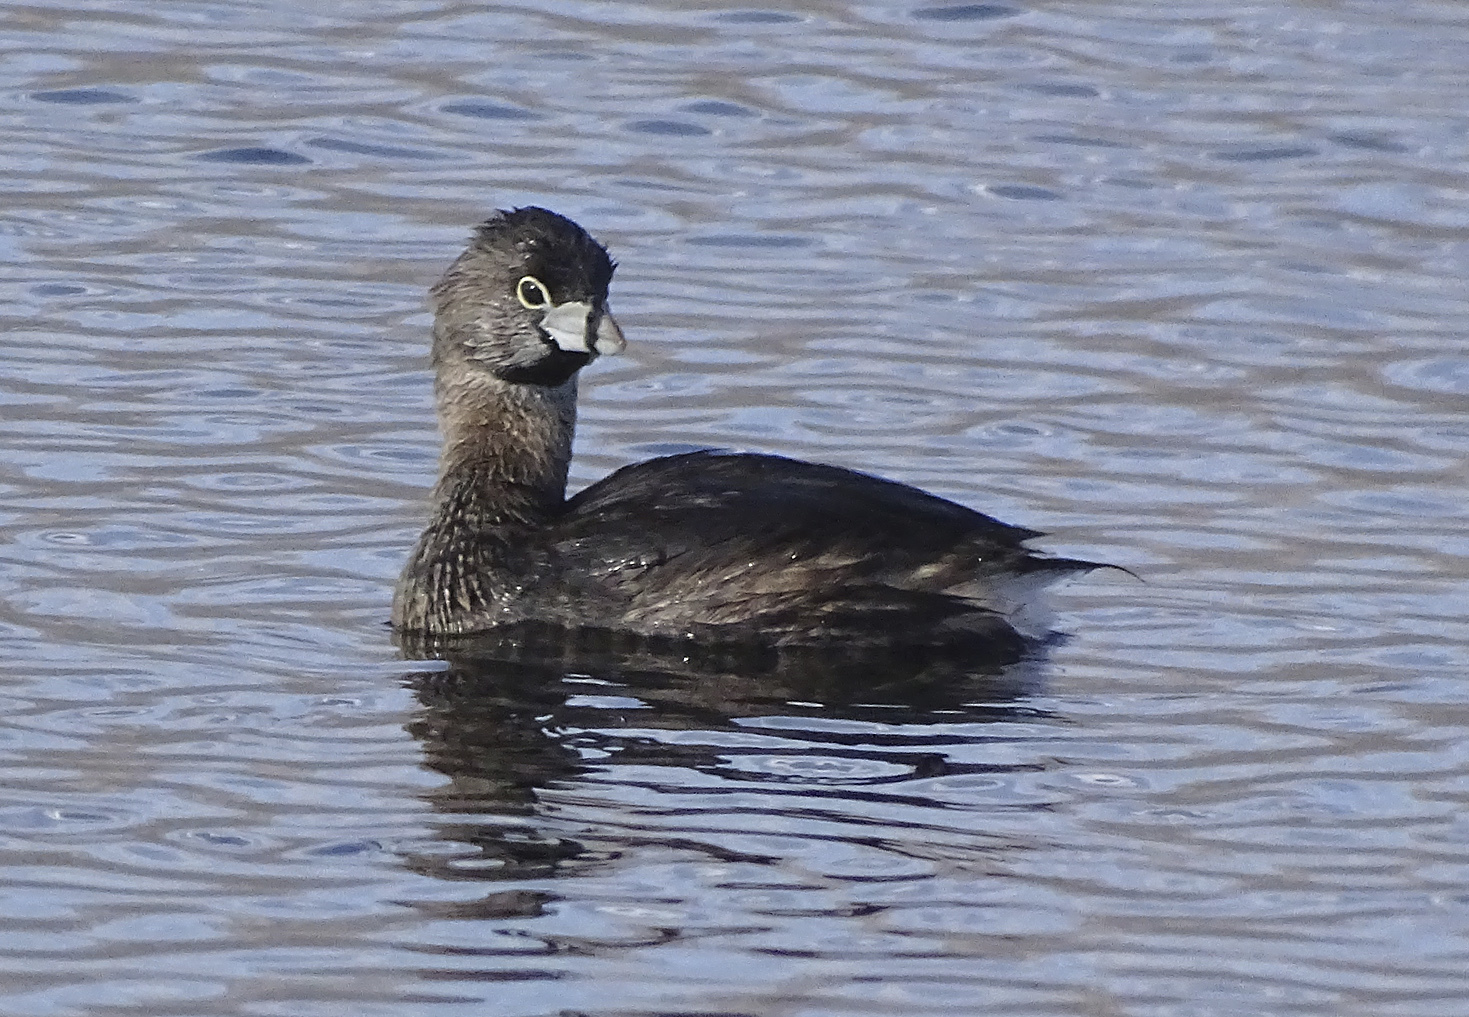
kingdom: Animalia
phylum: Chordata
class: Aves
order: Podicipediformes
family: Podicipedidae
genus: Podilymbus
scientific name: Podilymbus podiceps
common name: Pied-billed grebe
